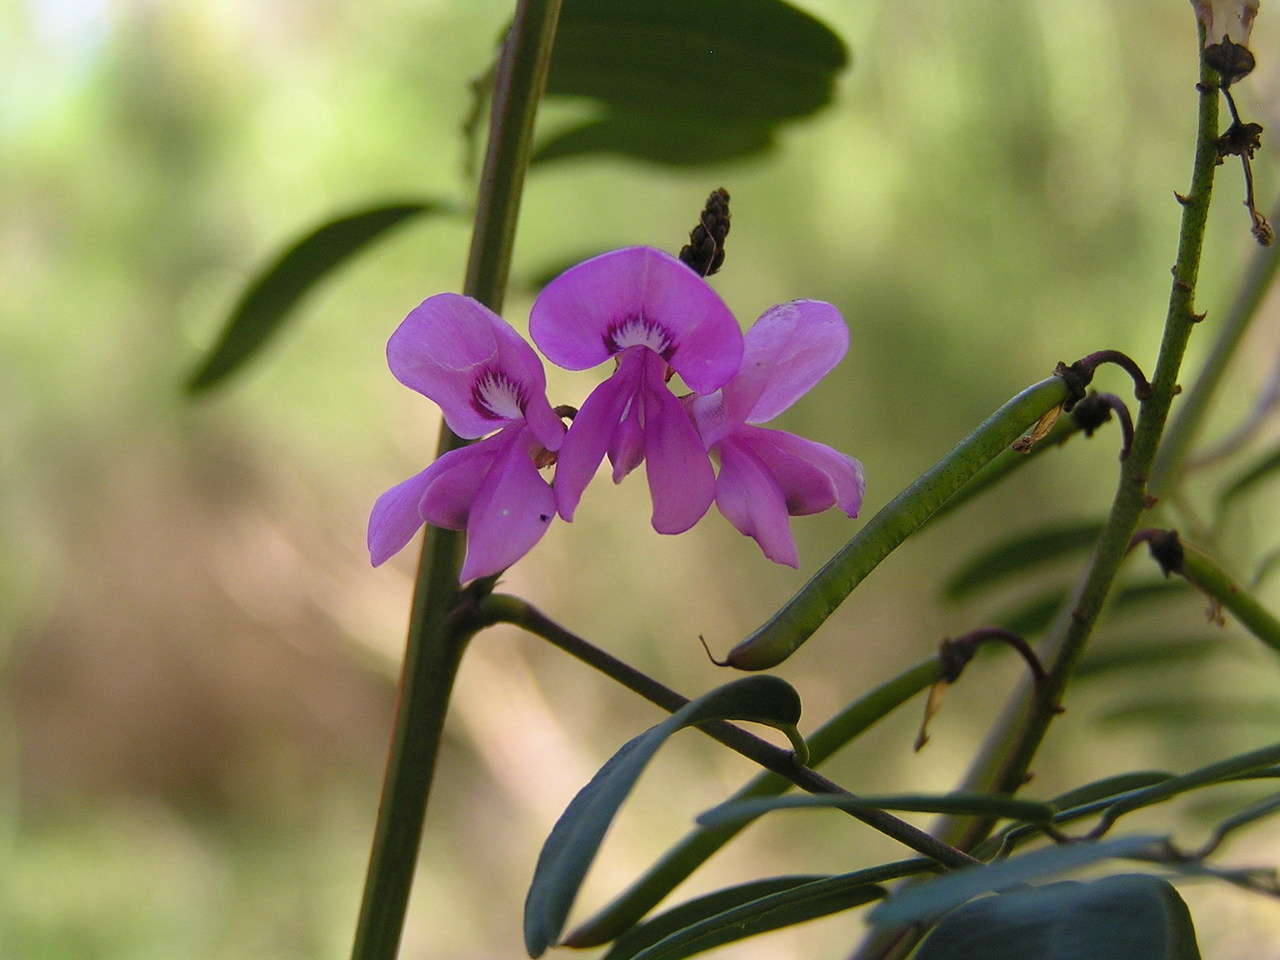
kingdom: Plantae
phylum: Tracheophyta
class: Magnoliopsida
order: Fabales
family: Fabaceae
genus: Indigofera
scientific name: Indigofera australis
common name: Australian indigo
